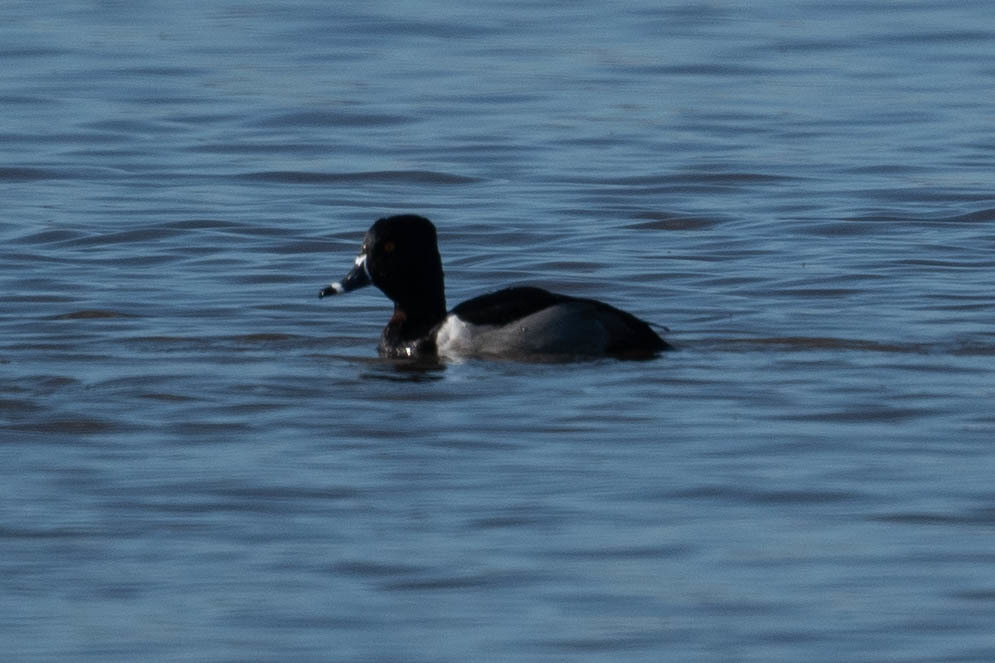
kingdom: Animalia
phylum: Chordata
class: Aves
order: Anseriformes
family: Anatidae
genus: Aythya
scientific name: Aythya collaris
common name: Ring-necked duck
